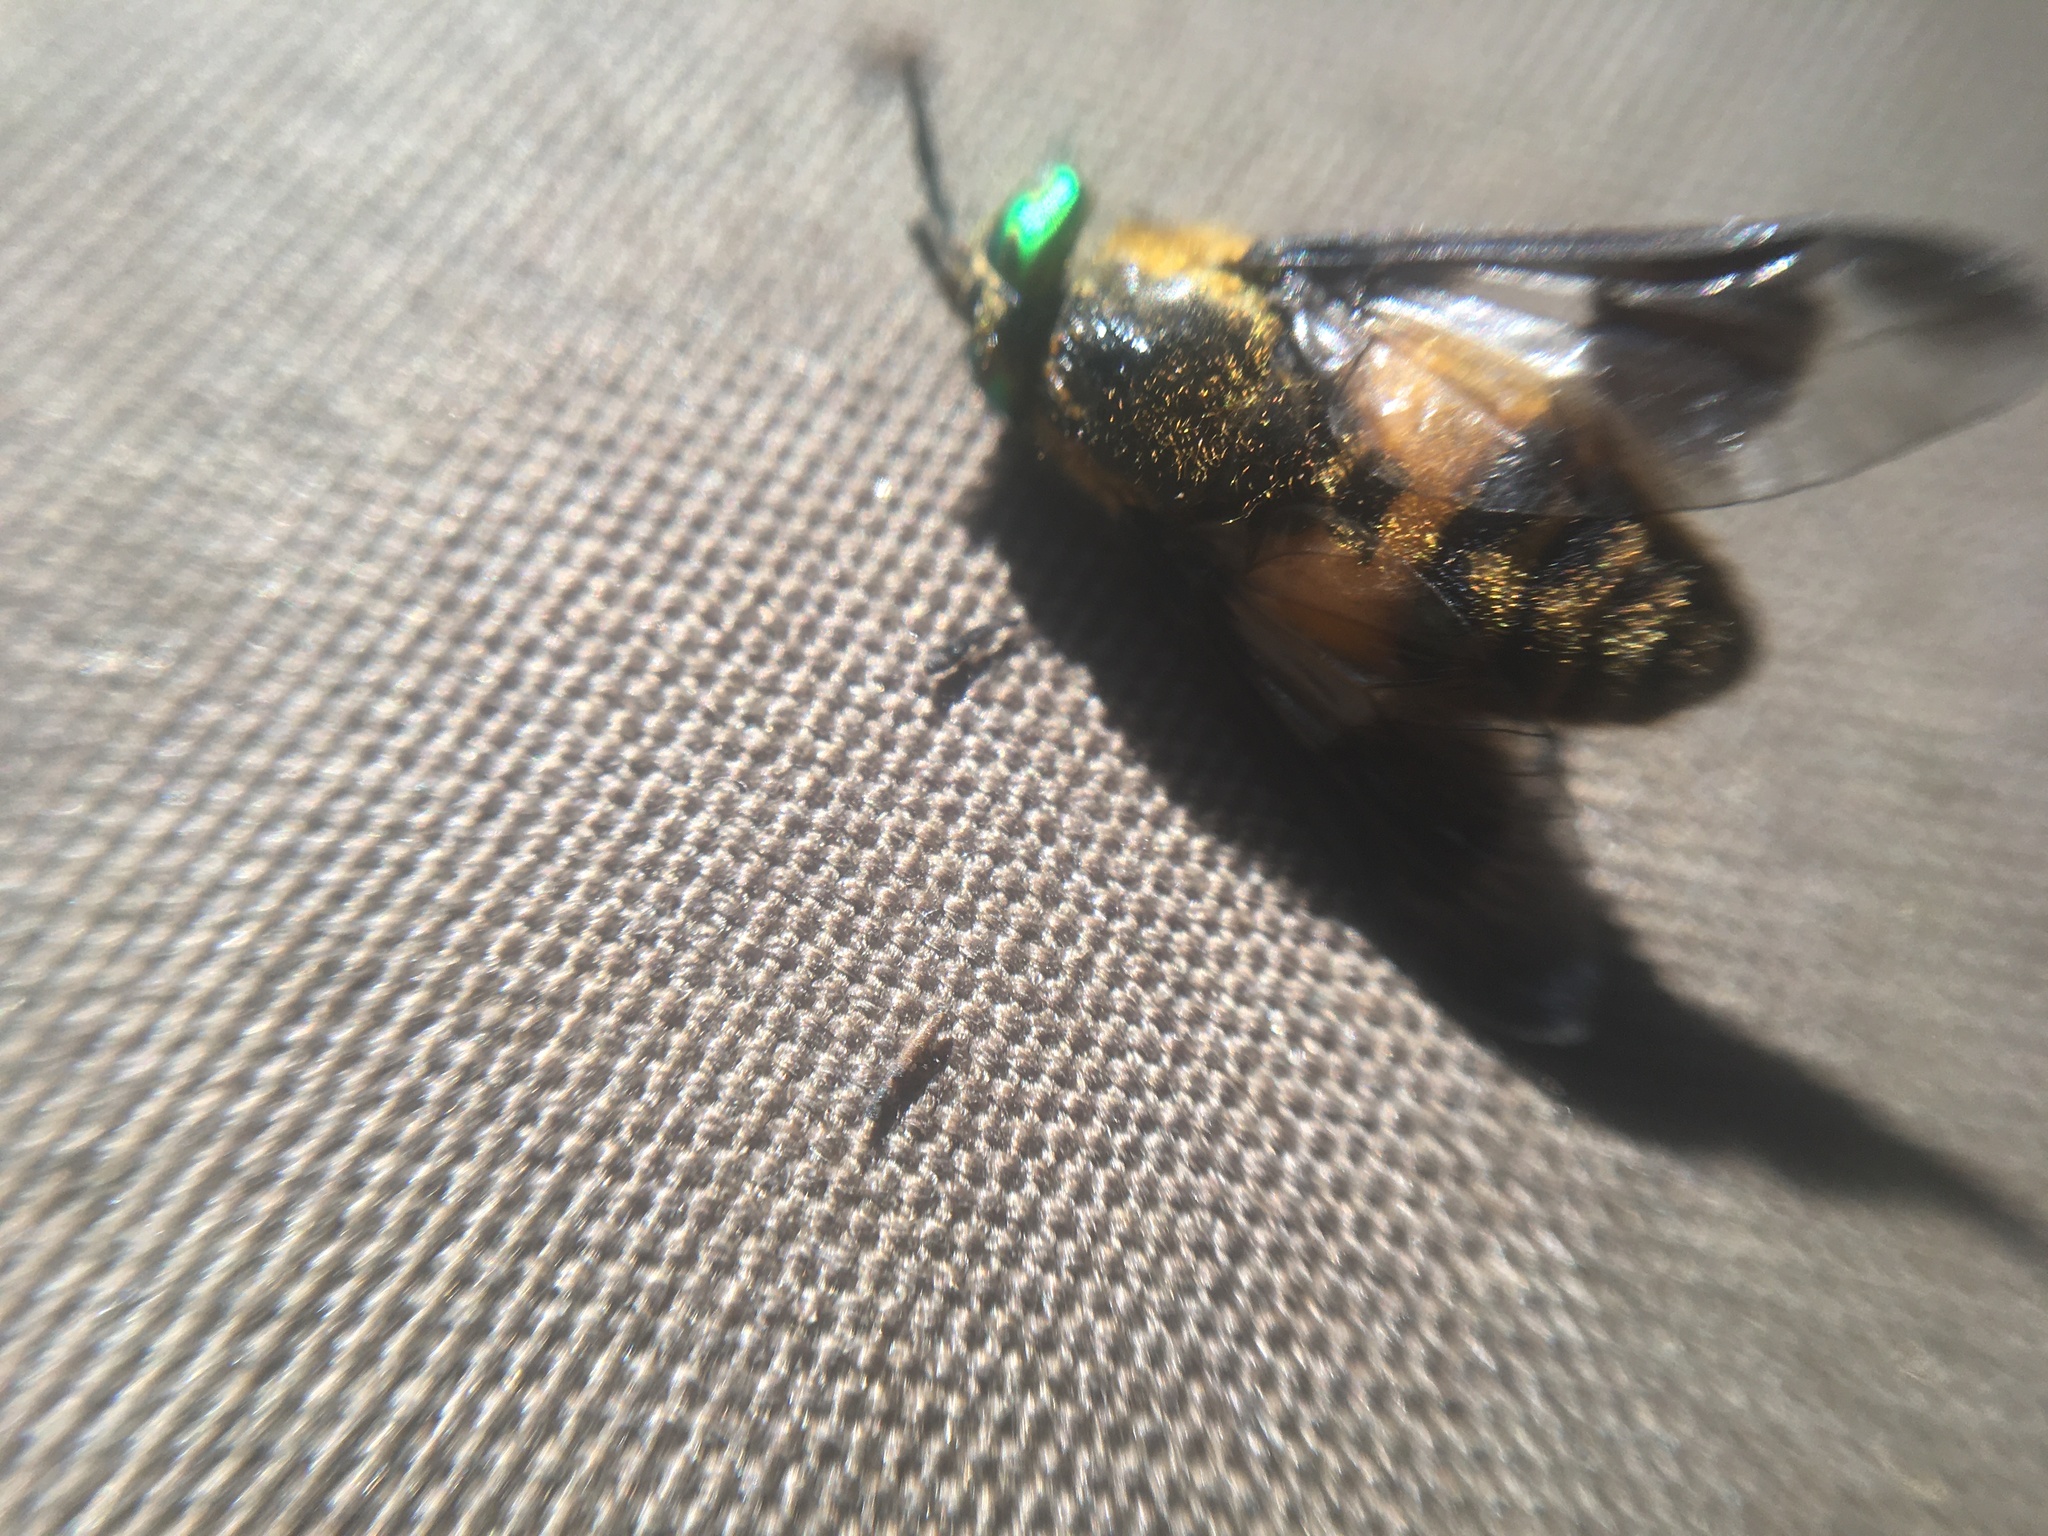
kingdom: Animalia
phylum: Arthropoda
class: Insecta
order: Diptera
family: Tabanidae
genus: Chrysops
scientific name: Chrysops viduatus
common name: Square-spot deerfly
